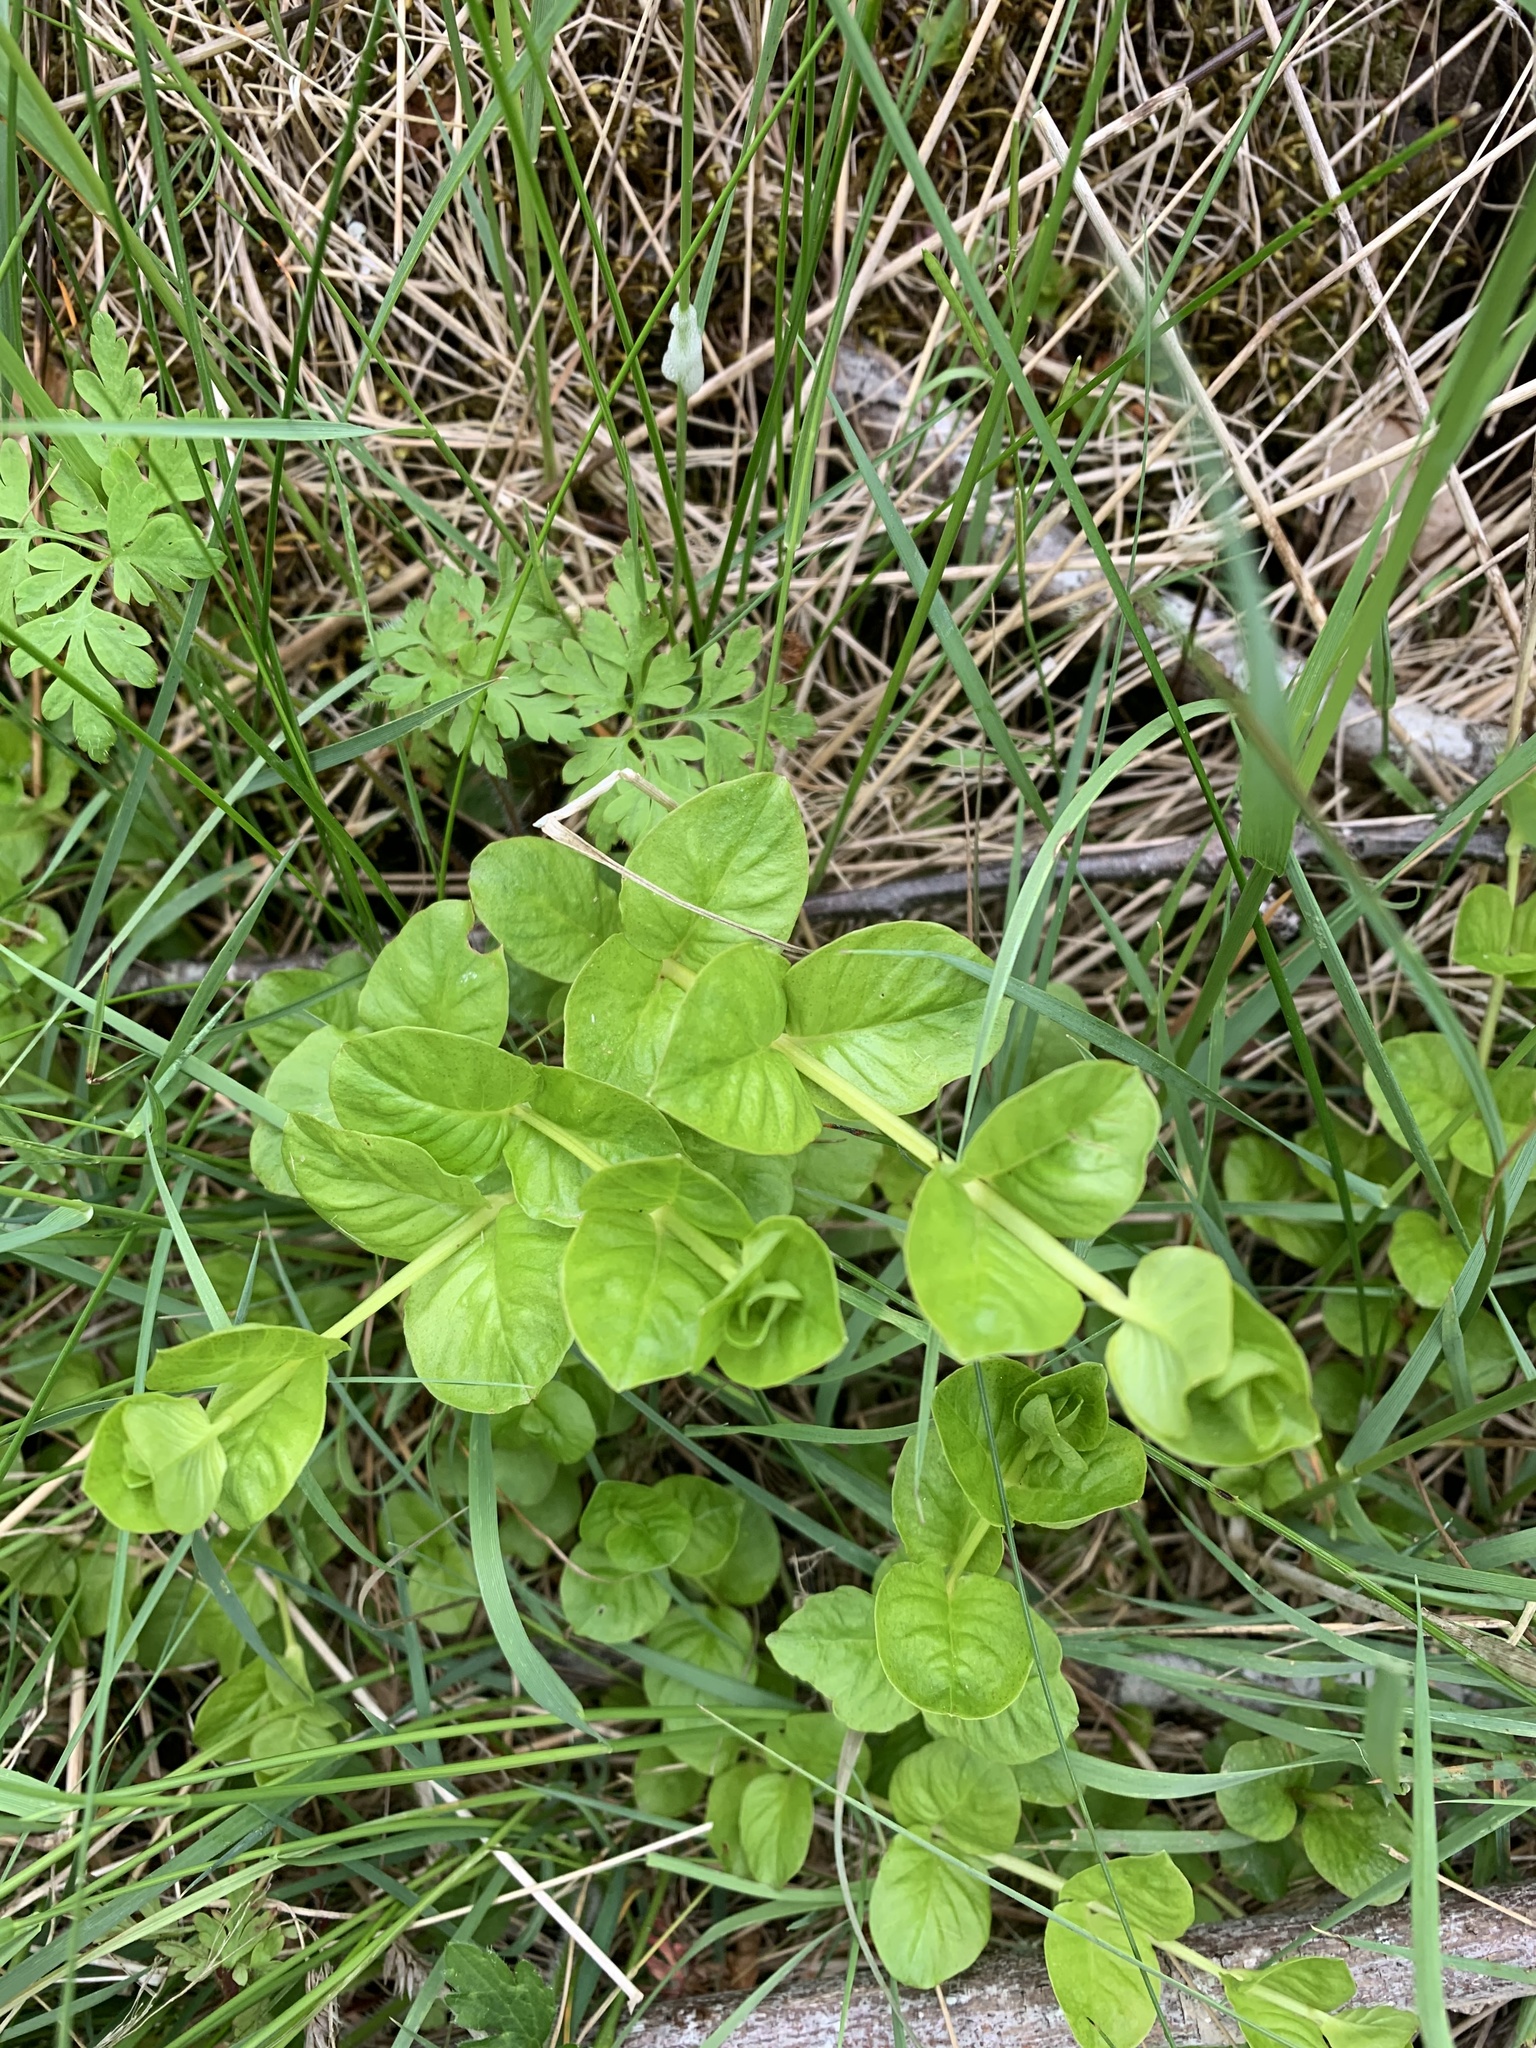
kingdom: Plantae
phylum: Tracheophyta
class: Magnoliopsida
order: Ericales
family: Primulaceae
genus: Lysimachia
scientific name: Lysimachia nummularia
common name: Moneywort
